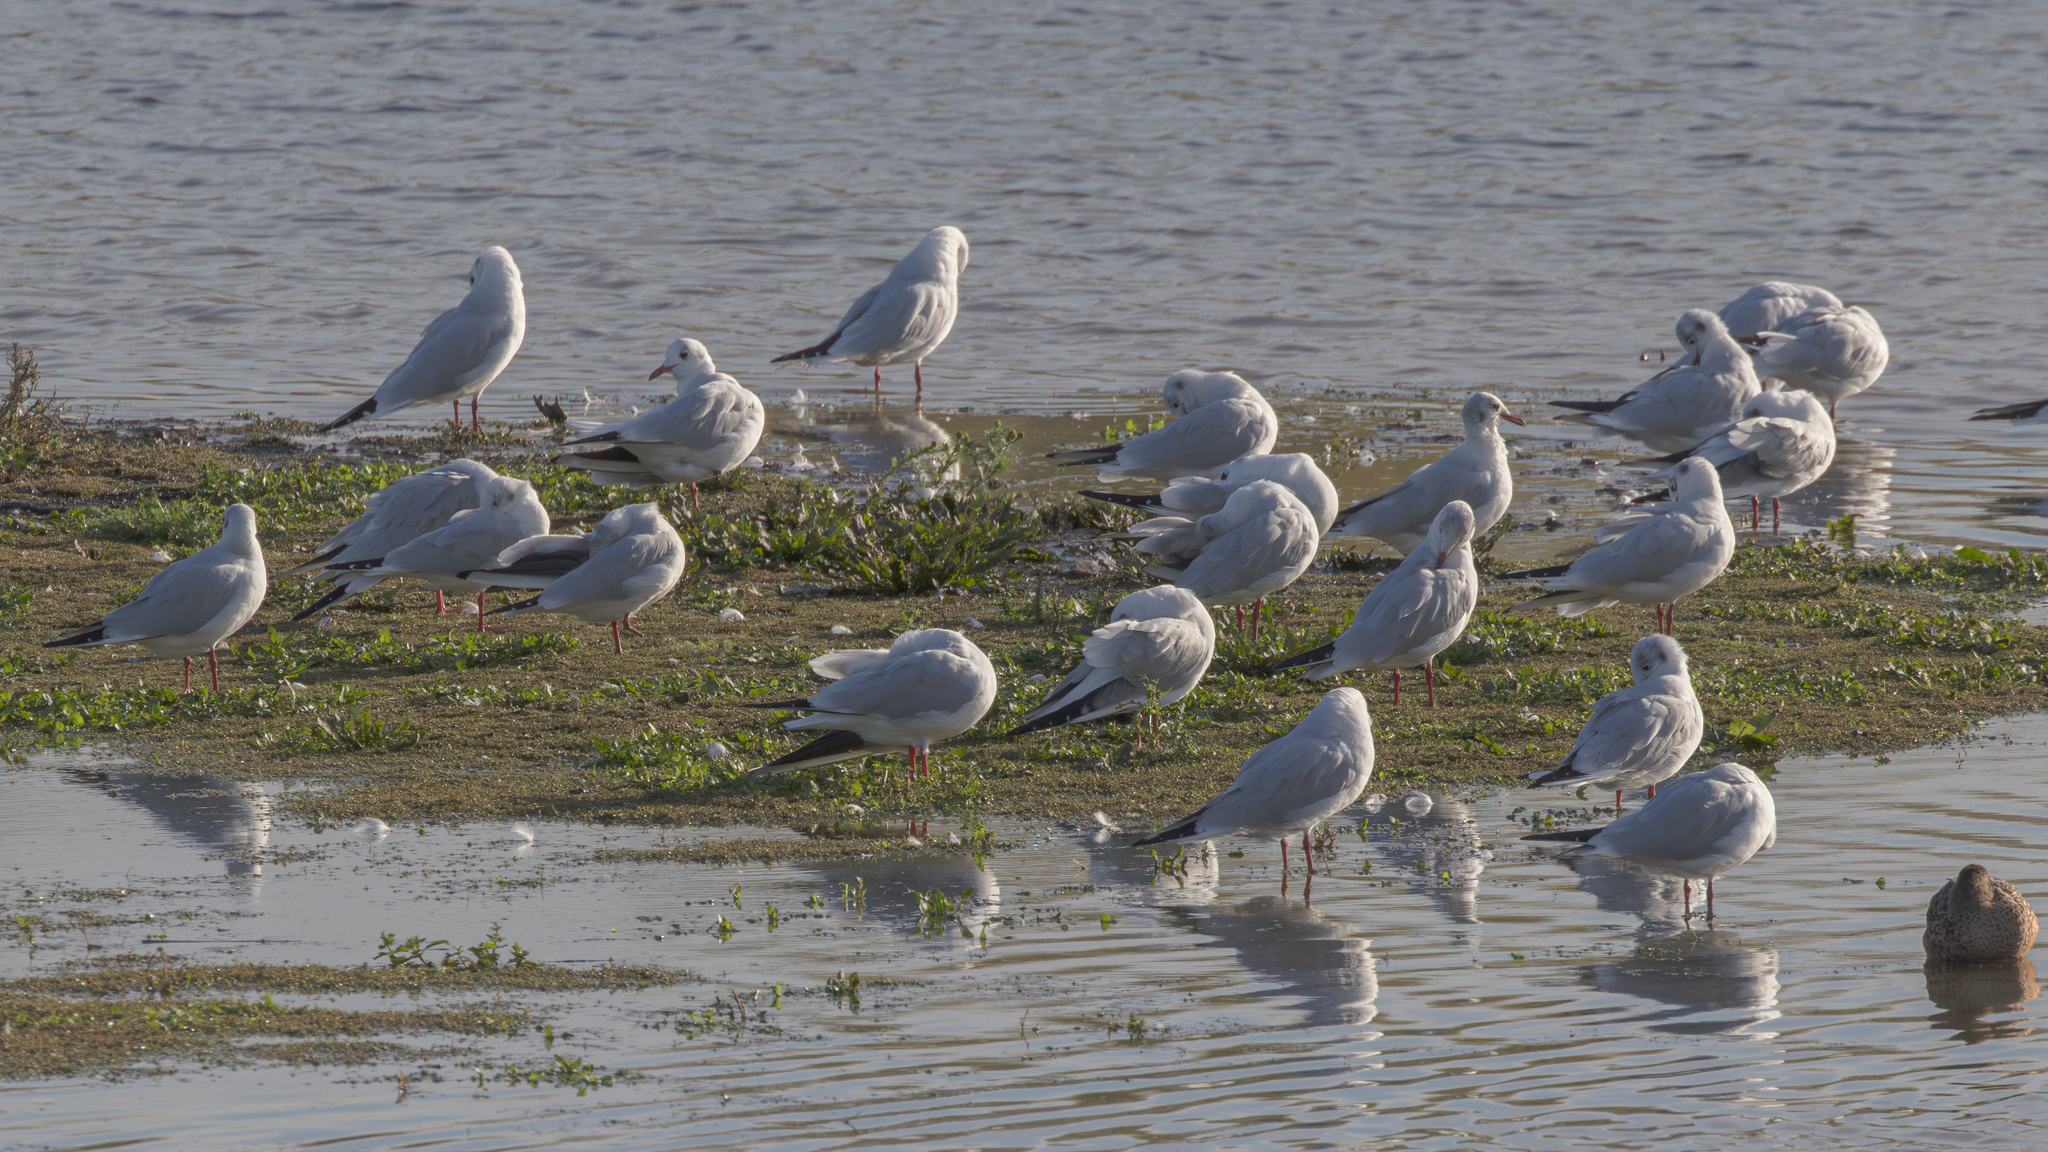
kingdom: Animalia
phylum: Chordata
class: Aves
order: Charadriiformes
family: Laridae
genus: Chroicocephalus
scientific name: Chroicocephalus ridibundus
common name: Black-headed gull
